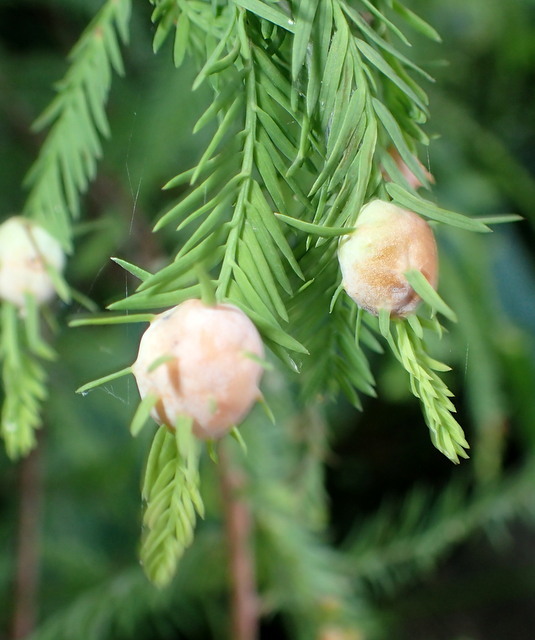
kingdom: Animalia
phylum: Arthropoda
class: Insecta
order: Diptera
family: Cecidomyiidae
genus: Taxodiomyia
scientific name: Taxodiomyia cupressiananassa
